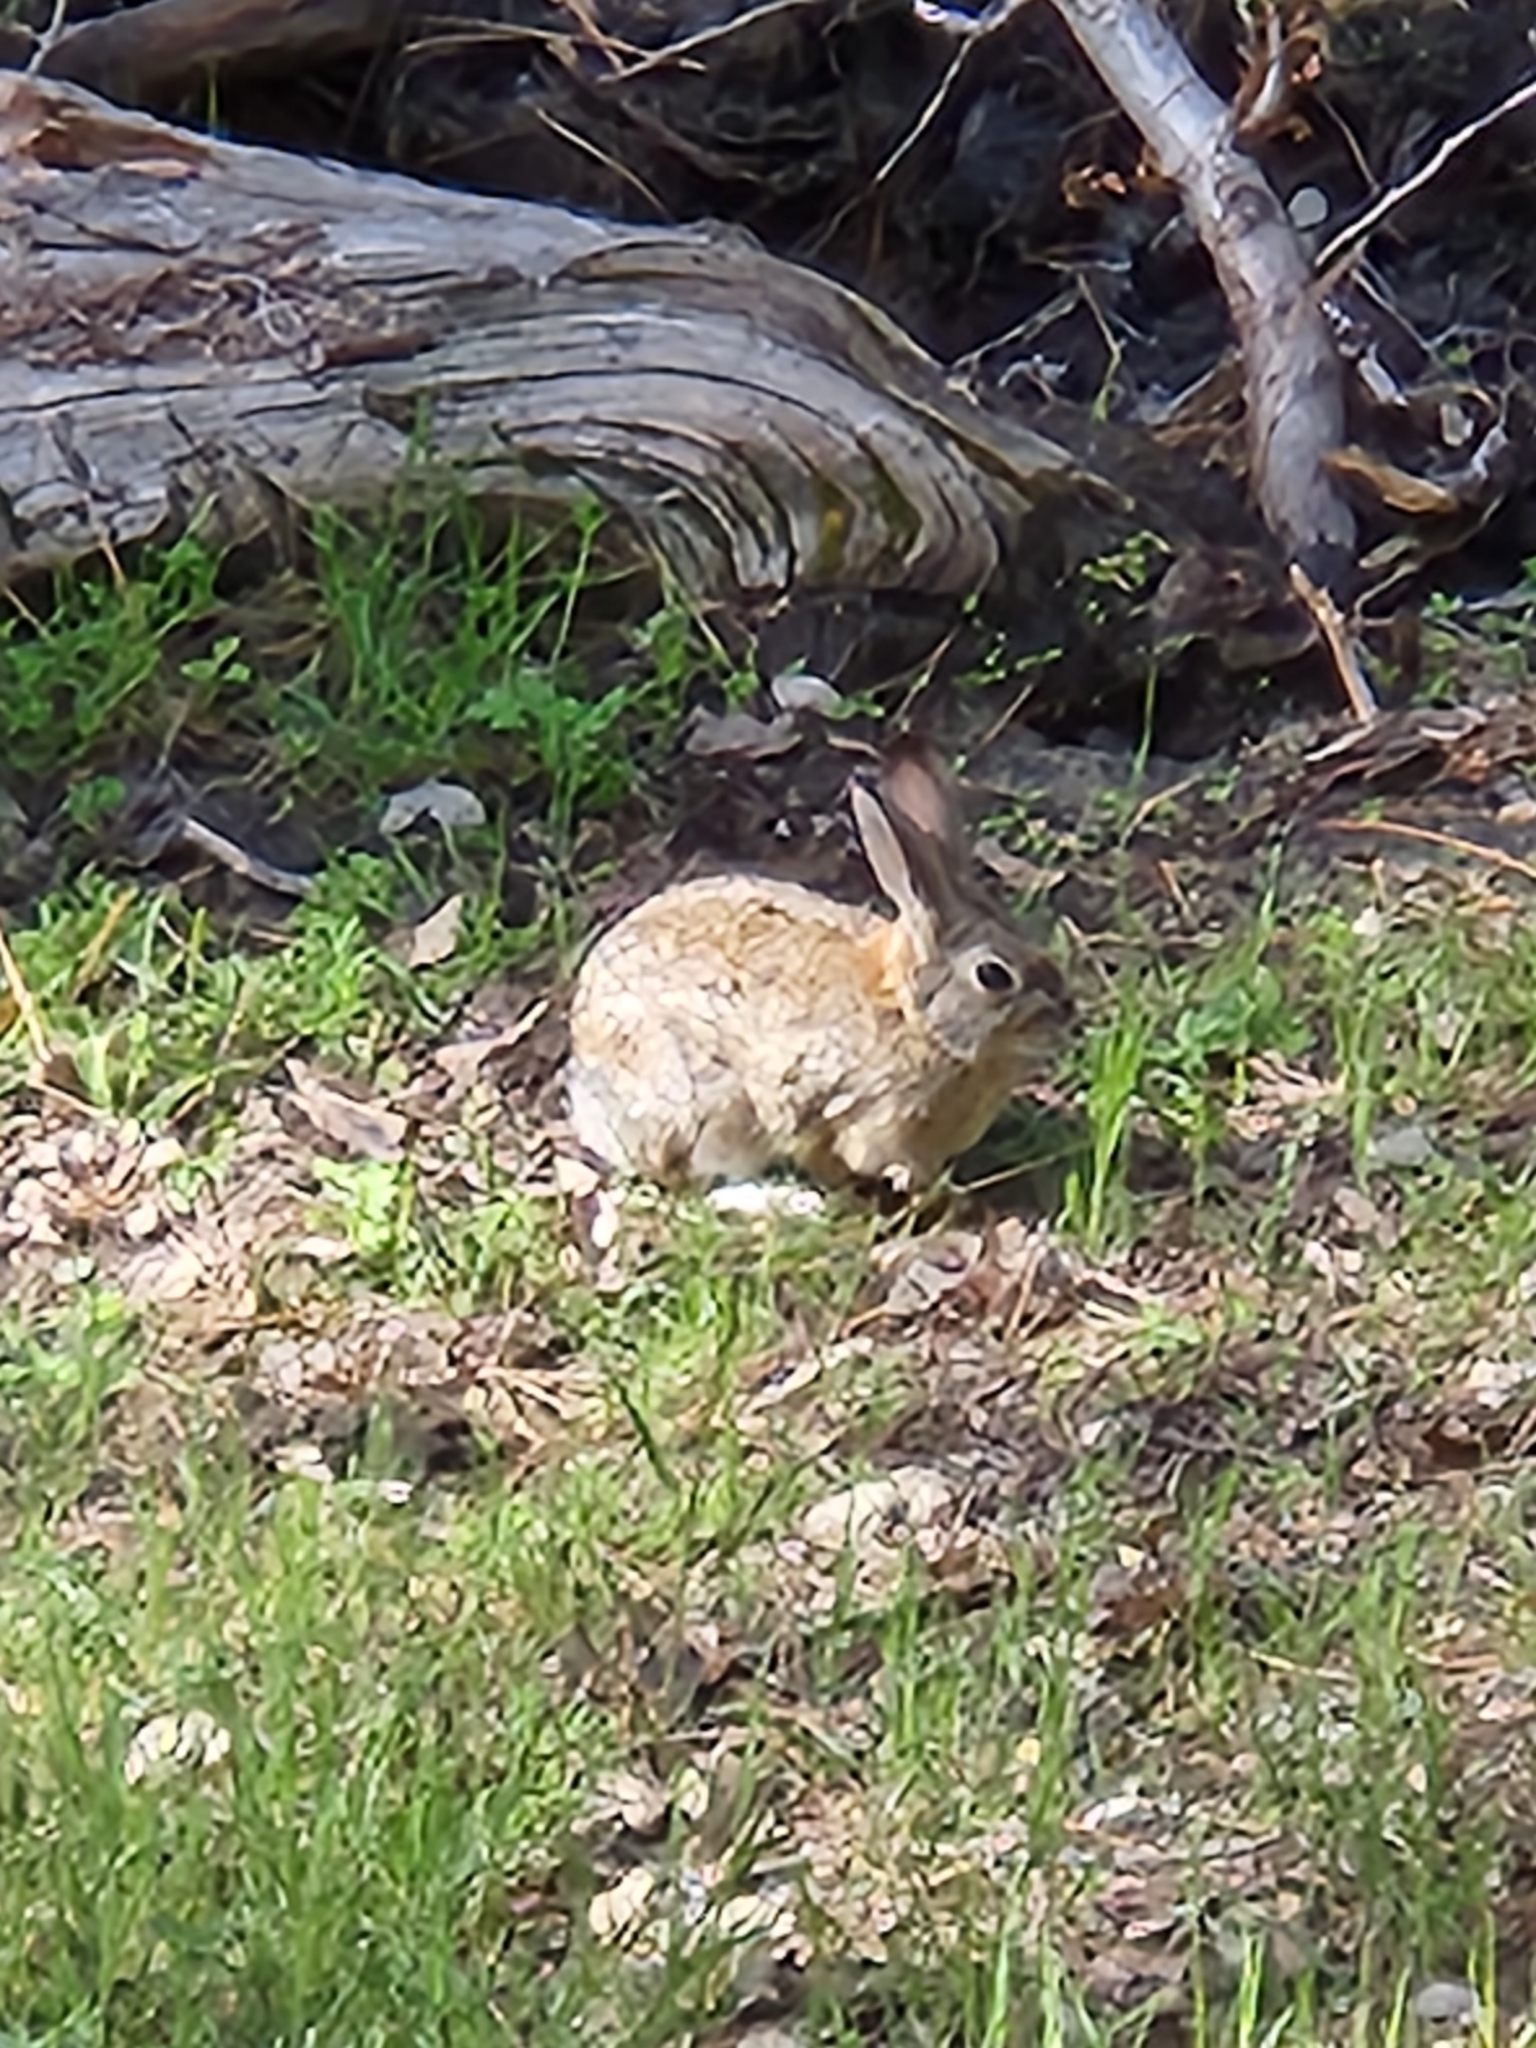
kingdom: Animalia
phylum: Chordata
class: Mammalia
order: Lagomorpha
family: Leporidae
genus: Sylvilagus
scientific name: Sylvilagus audubonii
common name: Desert cottontail
